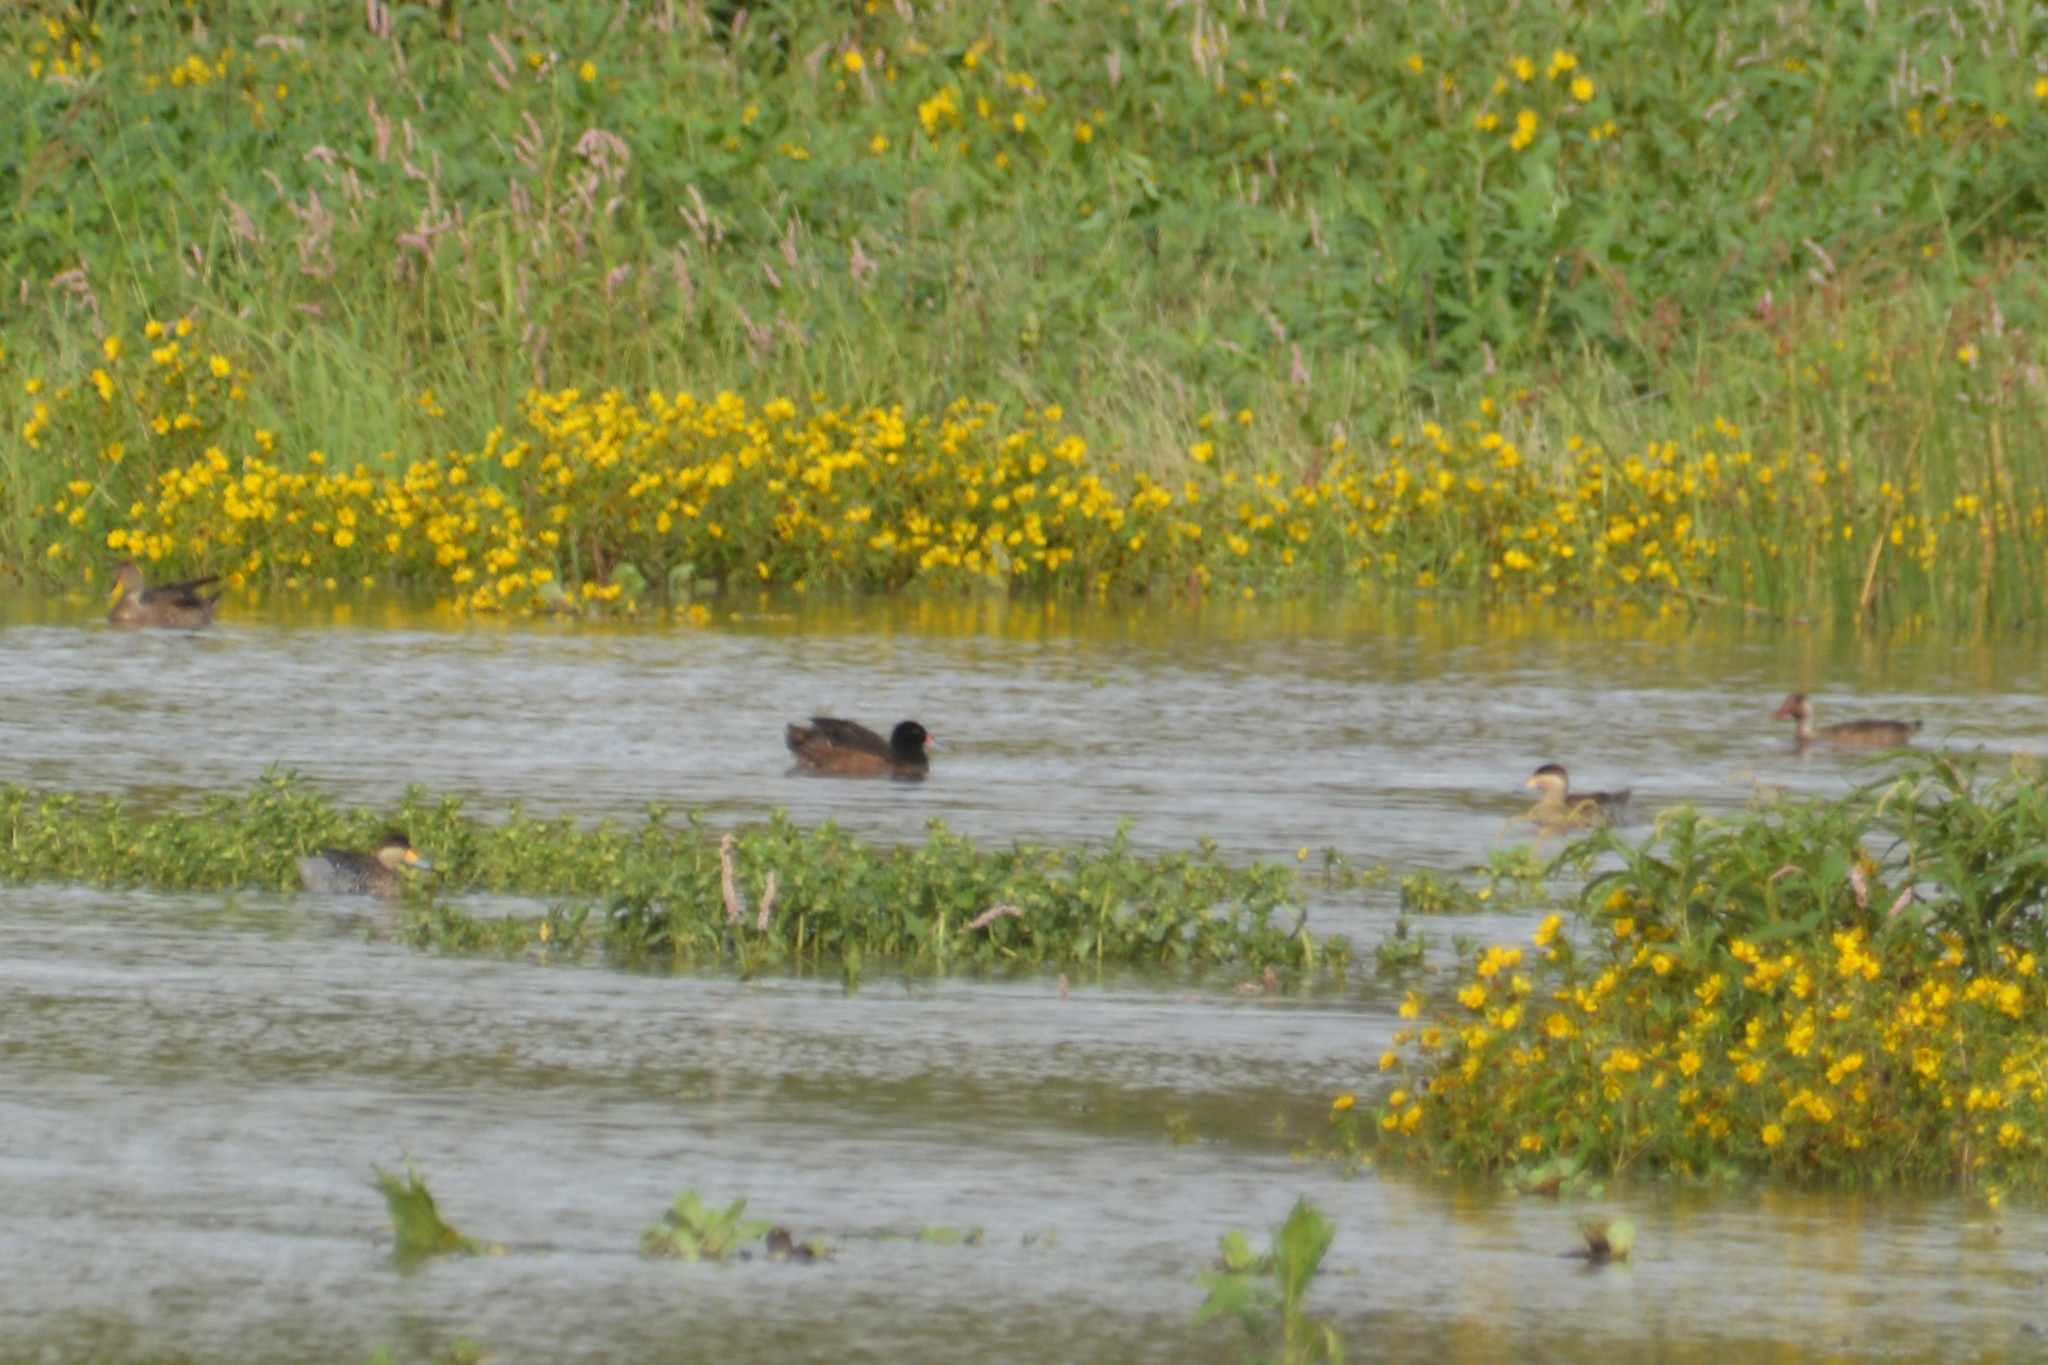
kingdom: Animalia
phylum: Chordata
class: Aves
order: Anseriformes
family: Anatidae
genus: Heteronetta
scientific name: Heteronetta atricapilla
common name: Black-headed duck
